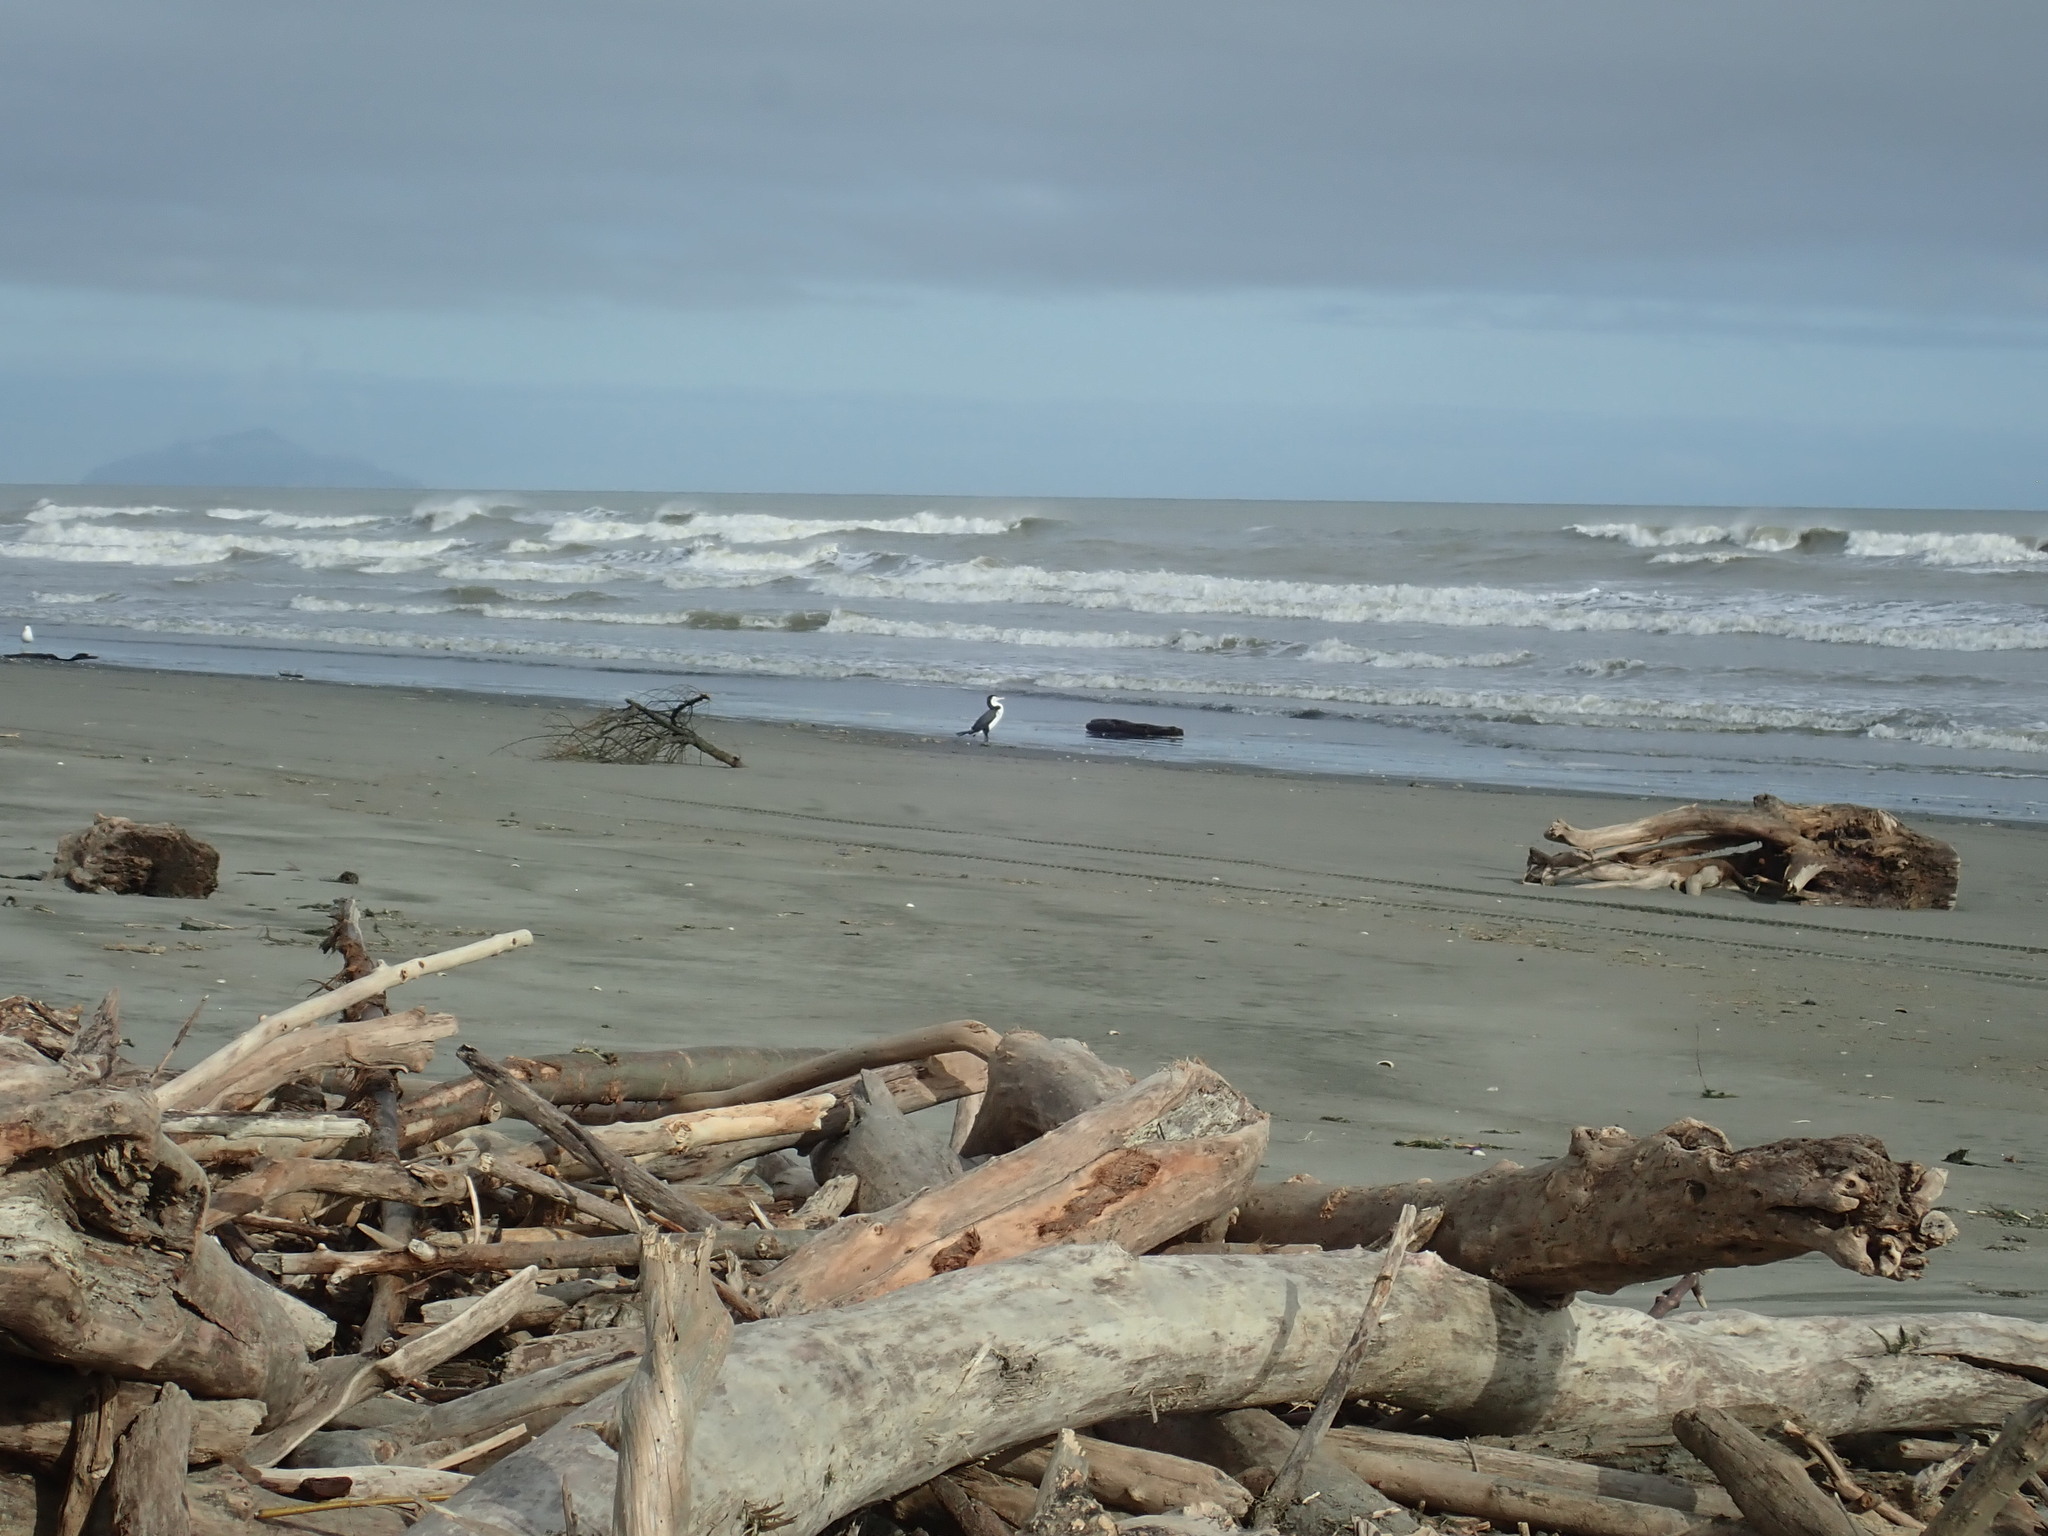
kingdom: Animalia
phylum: Chordata
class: Aves
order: Suliformes
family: Phalacrocoracidae
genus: Phalacrocorax
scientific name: Phalacrocorax varius
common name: Pied cormorant
